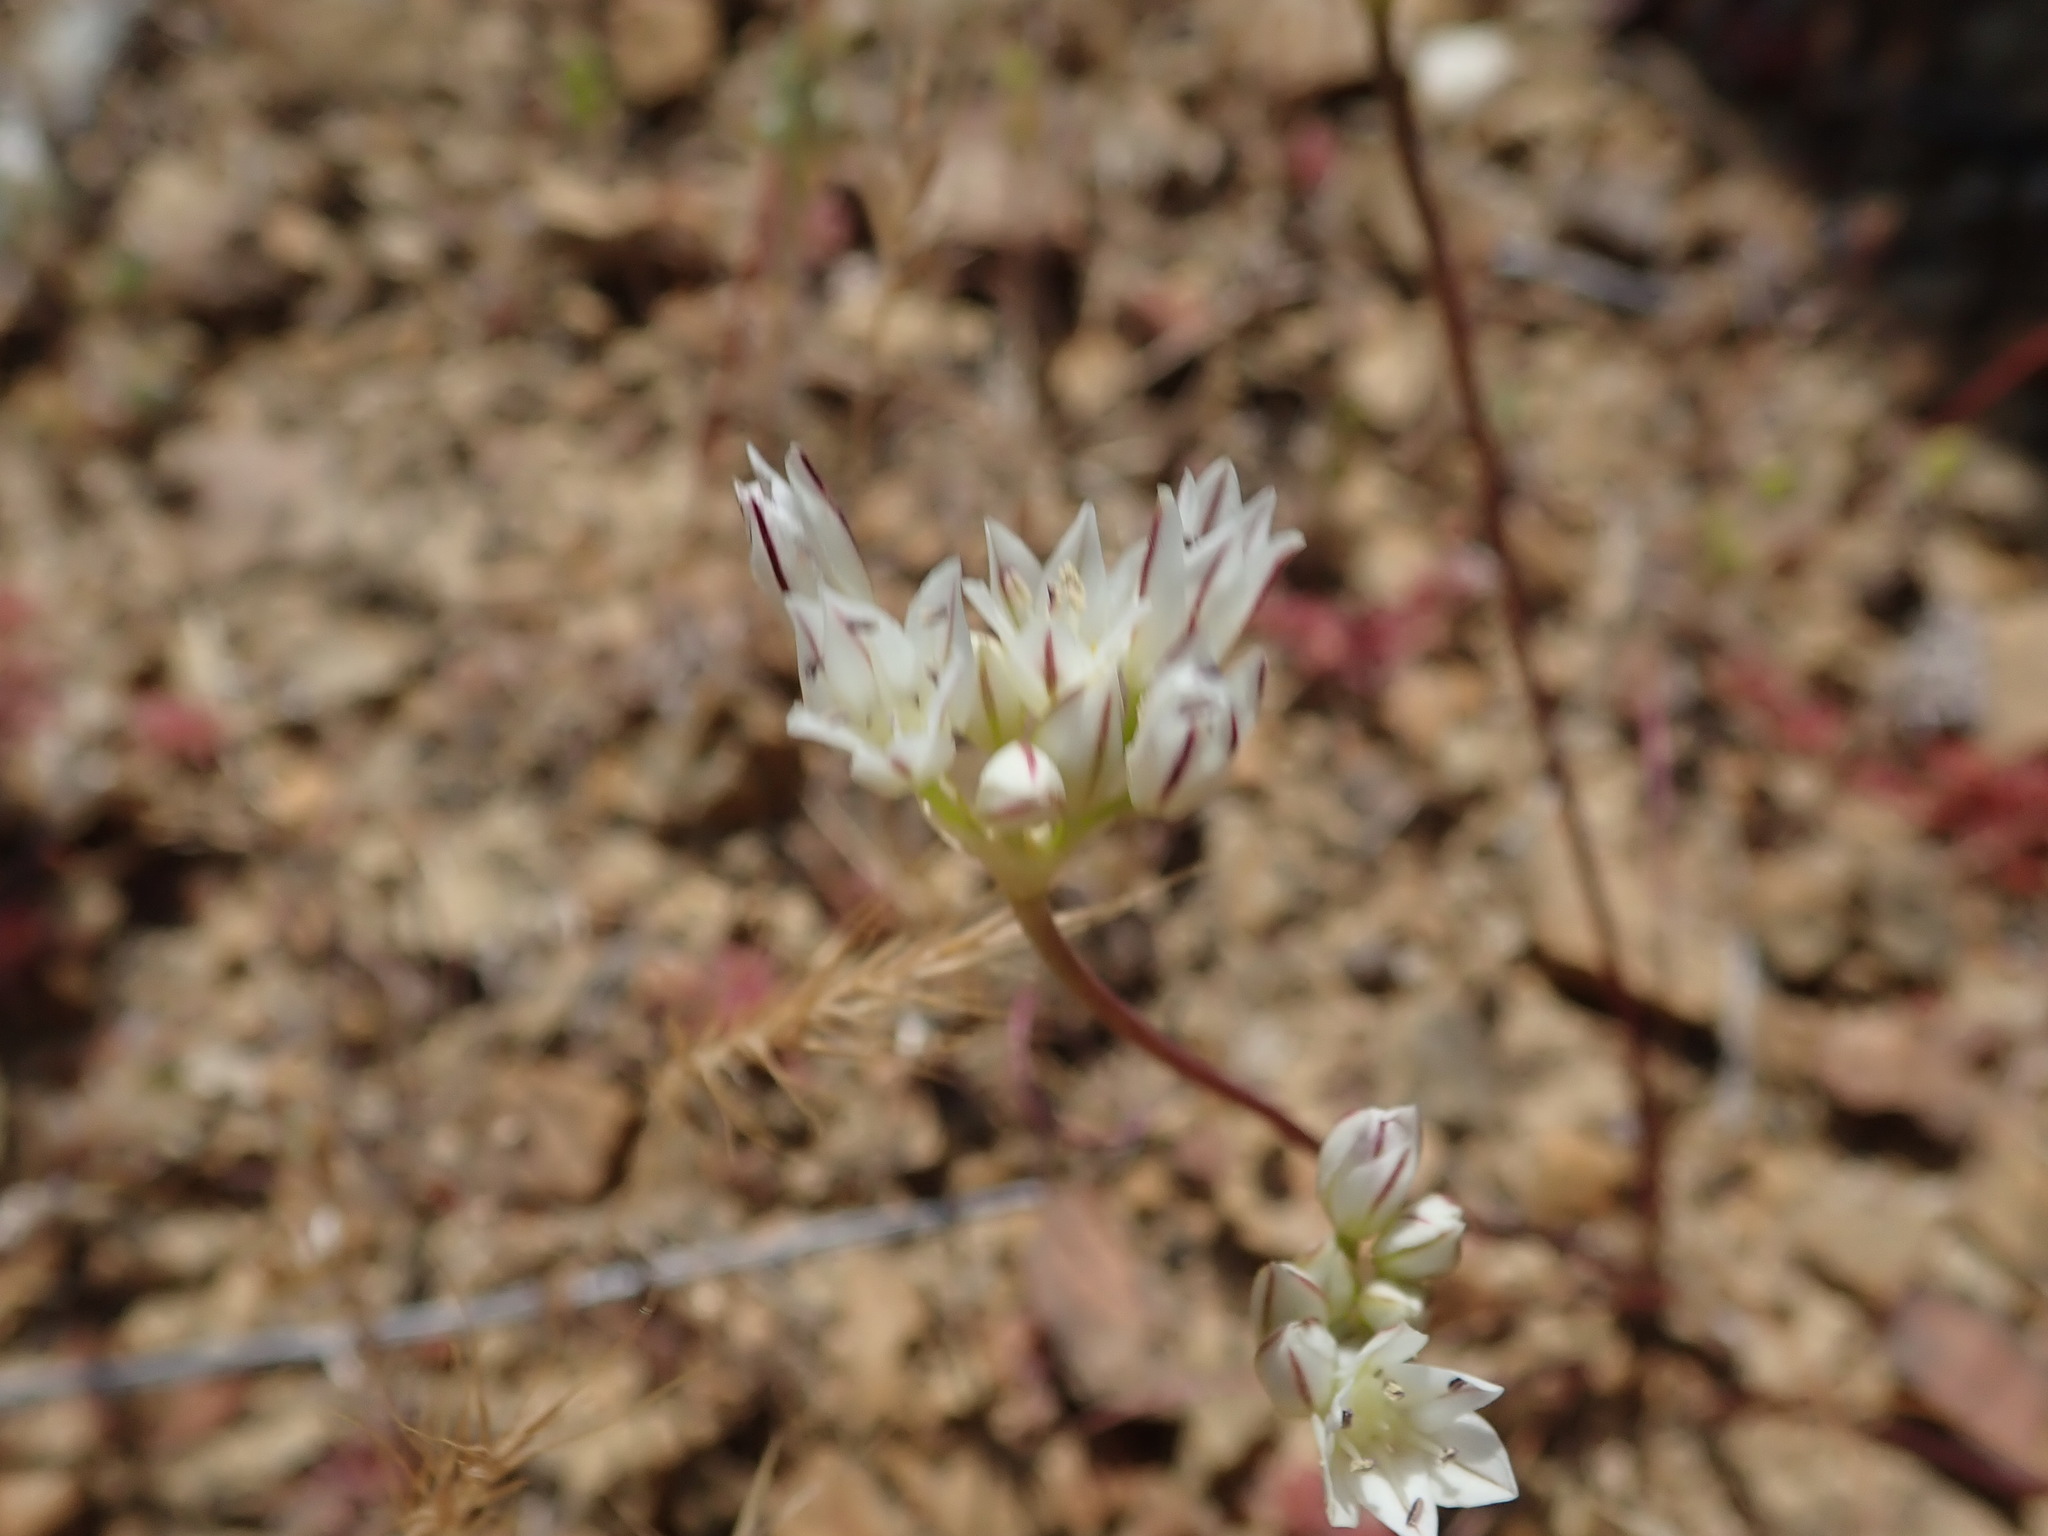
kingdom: Plantae
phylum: Tracheophyta
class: Liliopsida
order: Asparagales
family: Amaryllidaceae
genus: Allium
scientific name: Allium diabolense
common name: Serpentine onion
